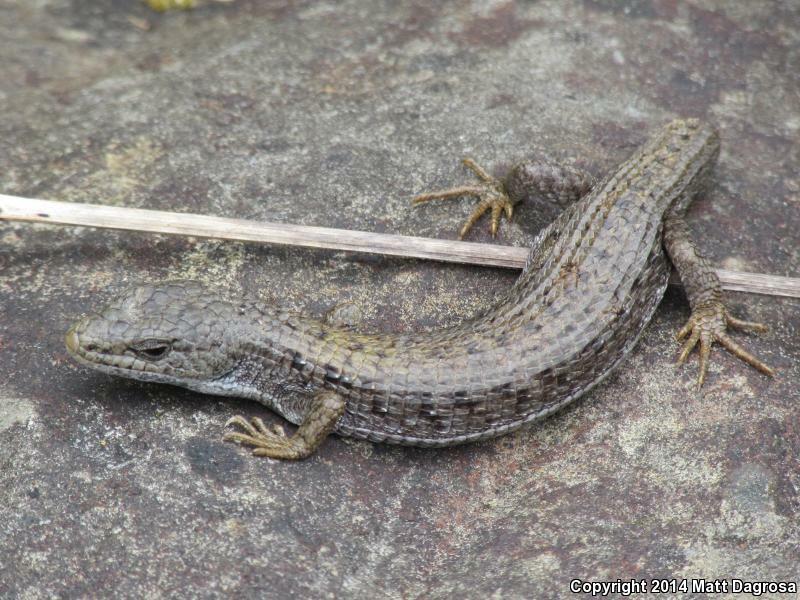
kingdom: Animalia
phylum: Chordata
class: Squamata
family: Anguidae
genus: Elgaria
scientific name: Elgaria coerulea
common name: Northern alligator lizard
